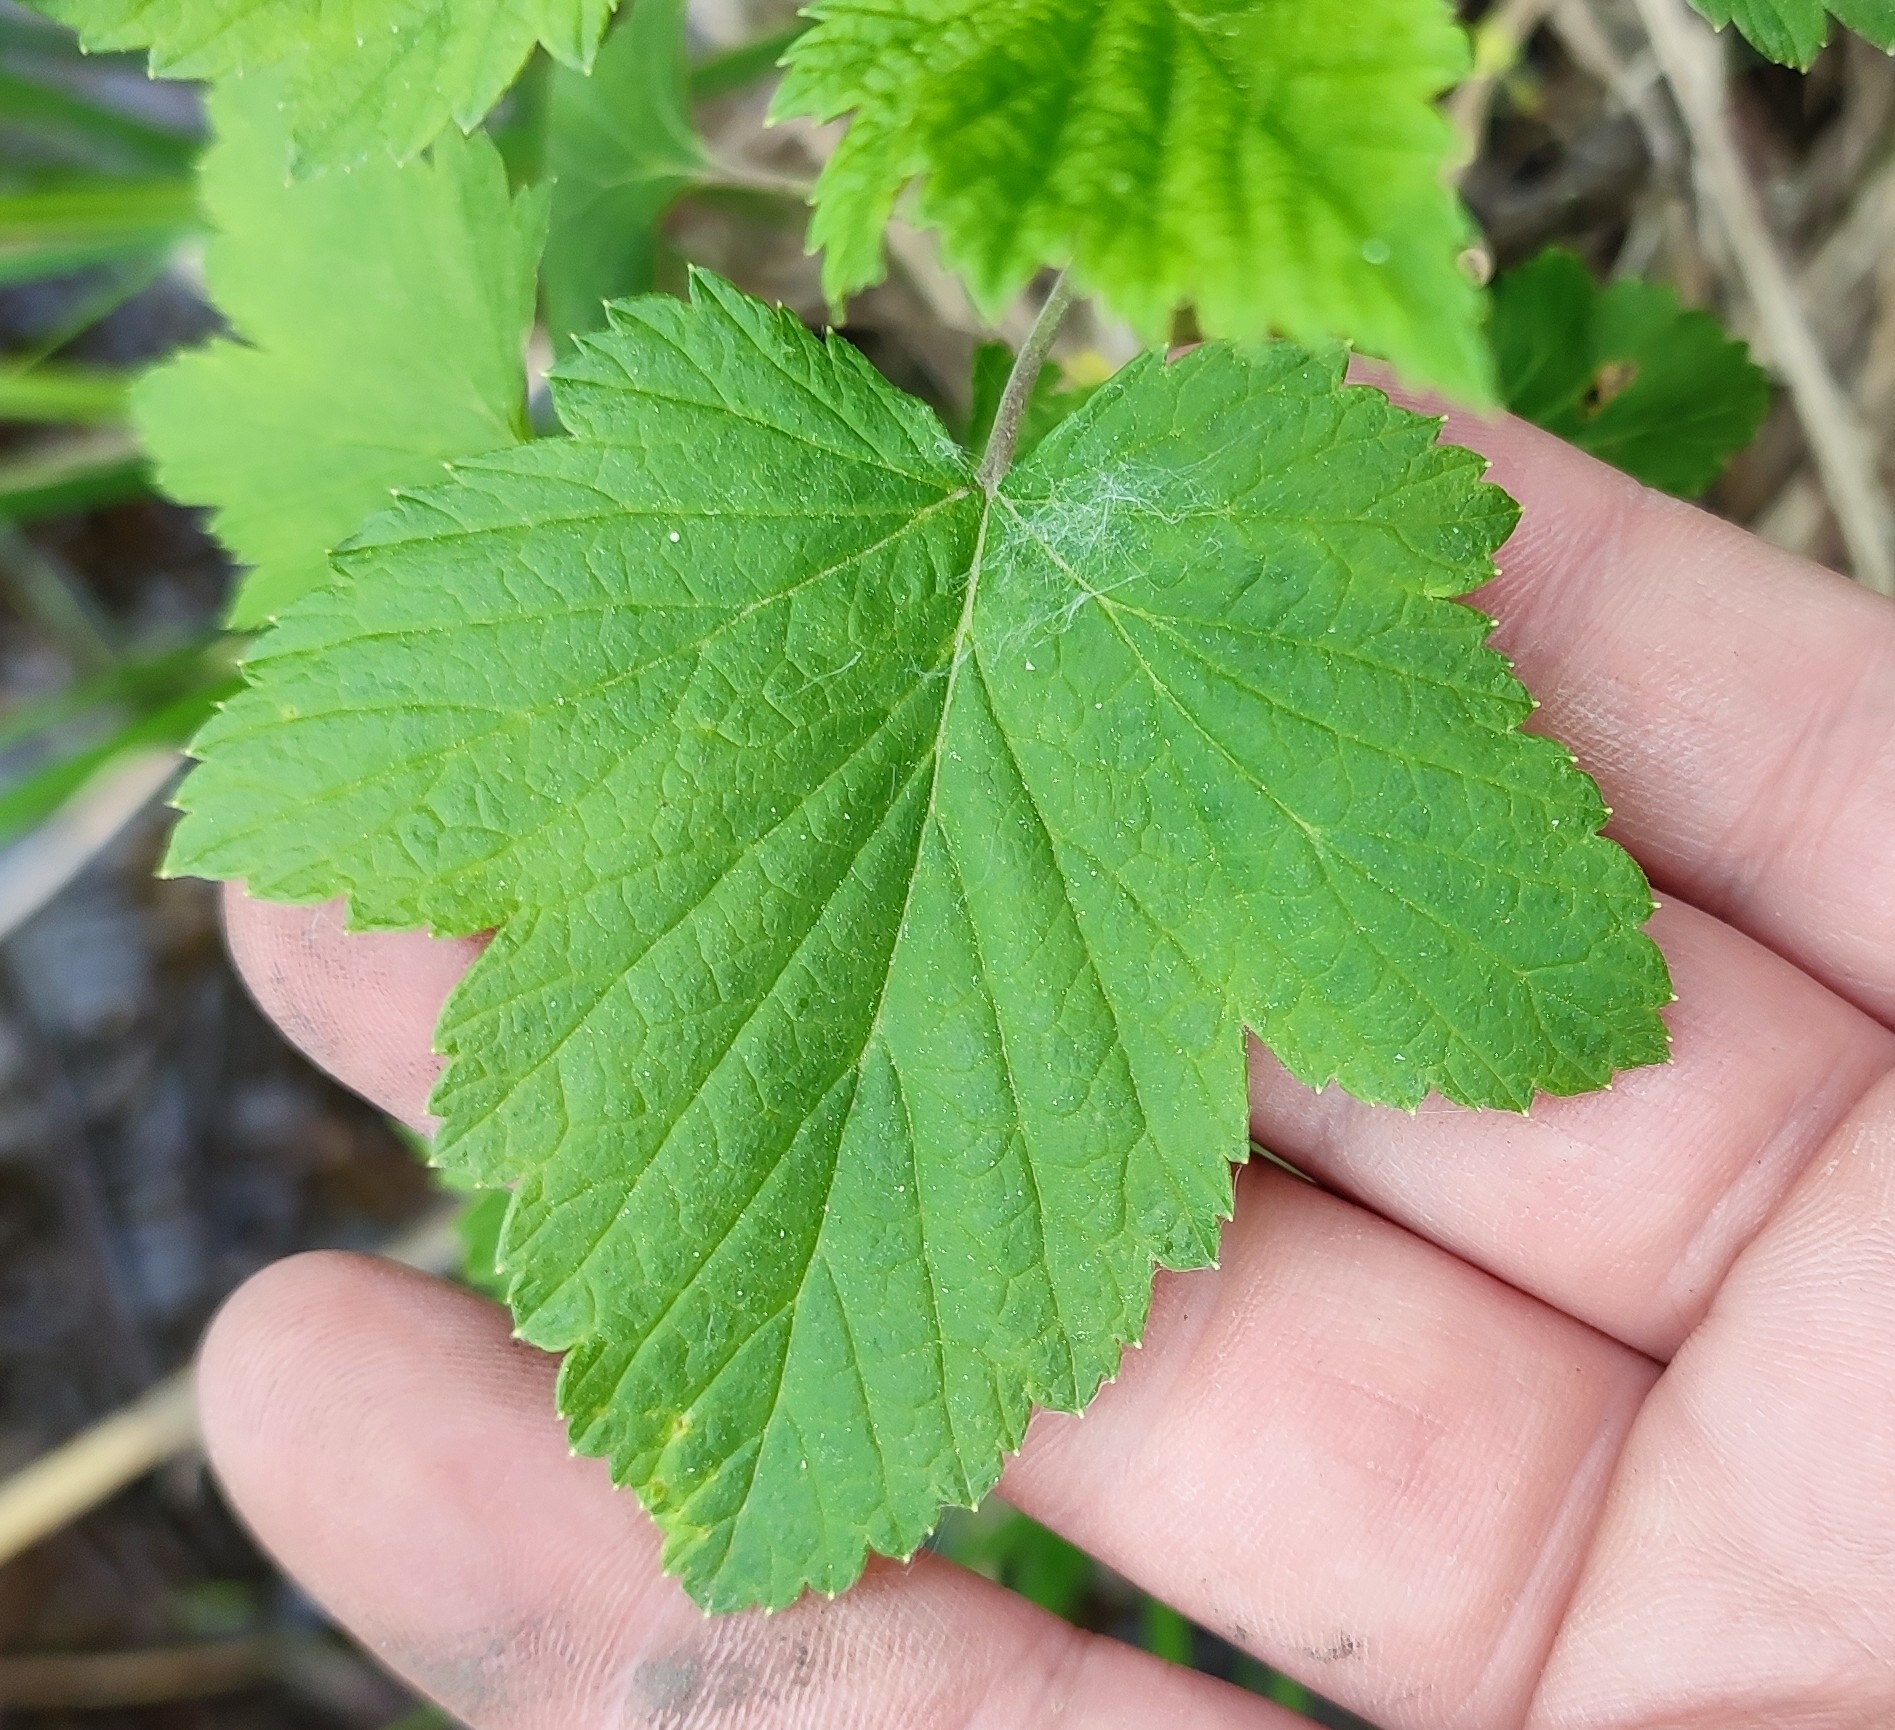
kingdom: Plantae
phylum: Tracheophyta
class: Magnoliopsida
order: Saxifragales
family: Grossulariaceae
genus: Ribes
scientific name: Ribes nigrum
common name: Black currant
